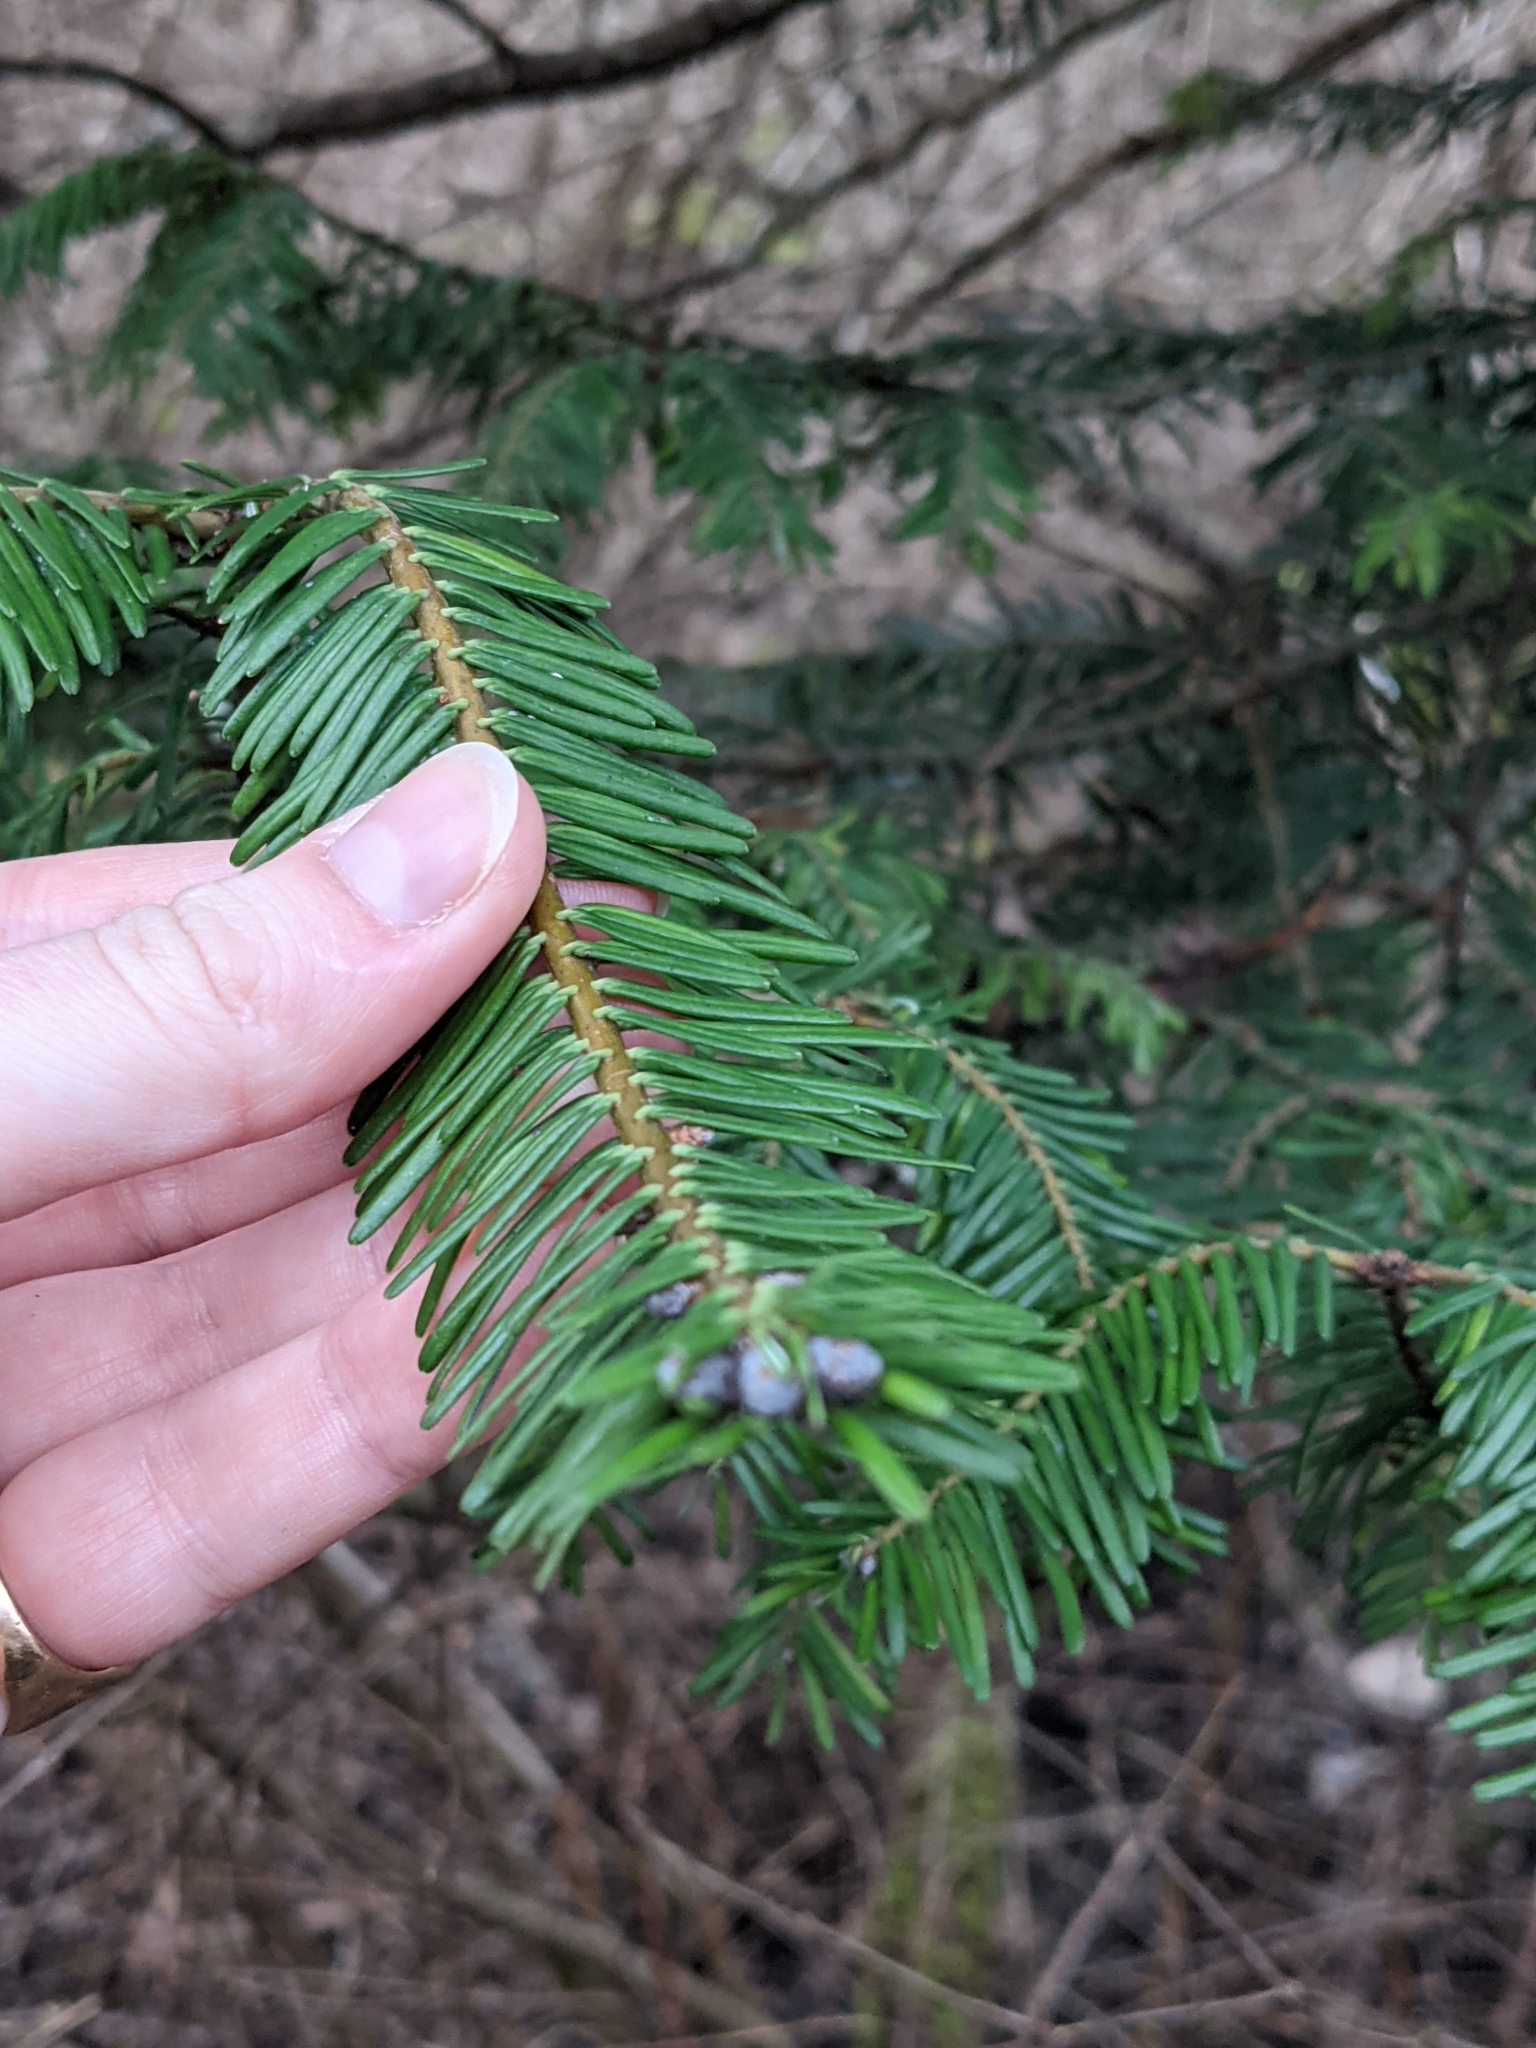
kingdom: Plantae
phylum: Tracheophyta
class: Pinopsida
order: Pinales
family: Pinaceae
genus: Abies
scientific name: Abies grandis
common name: Giant fir
